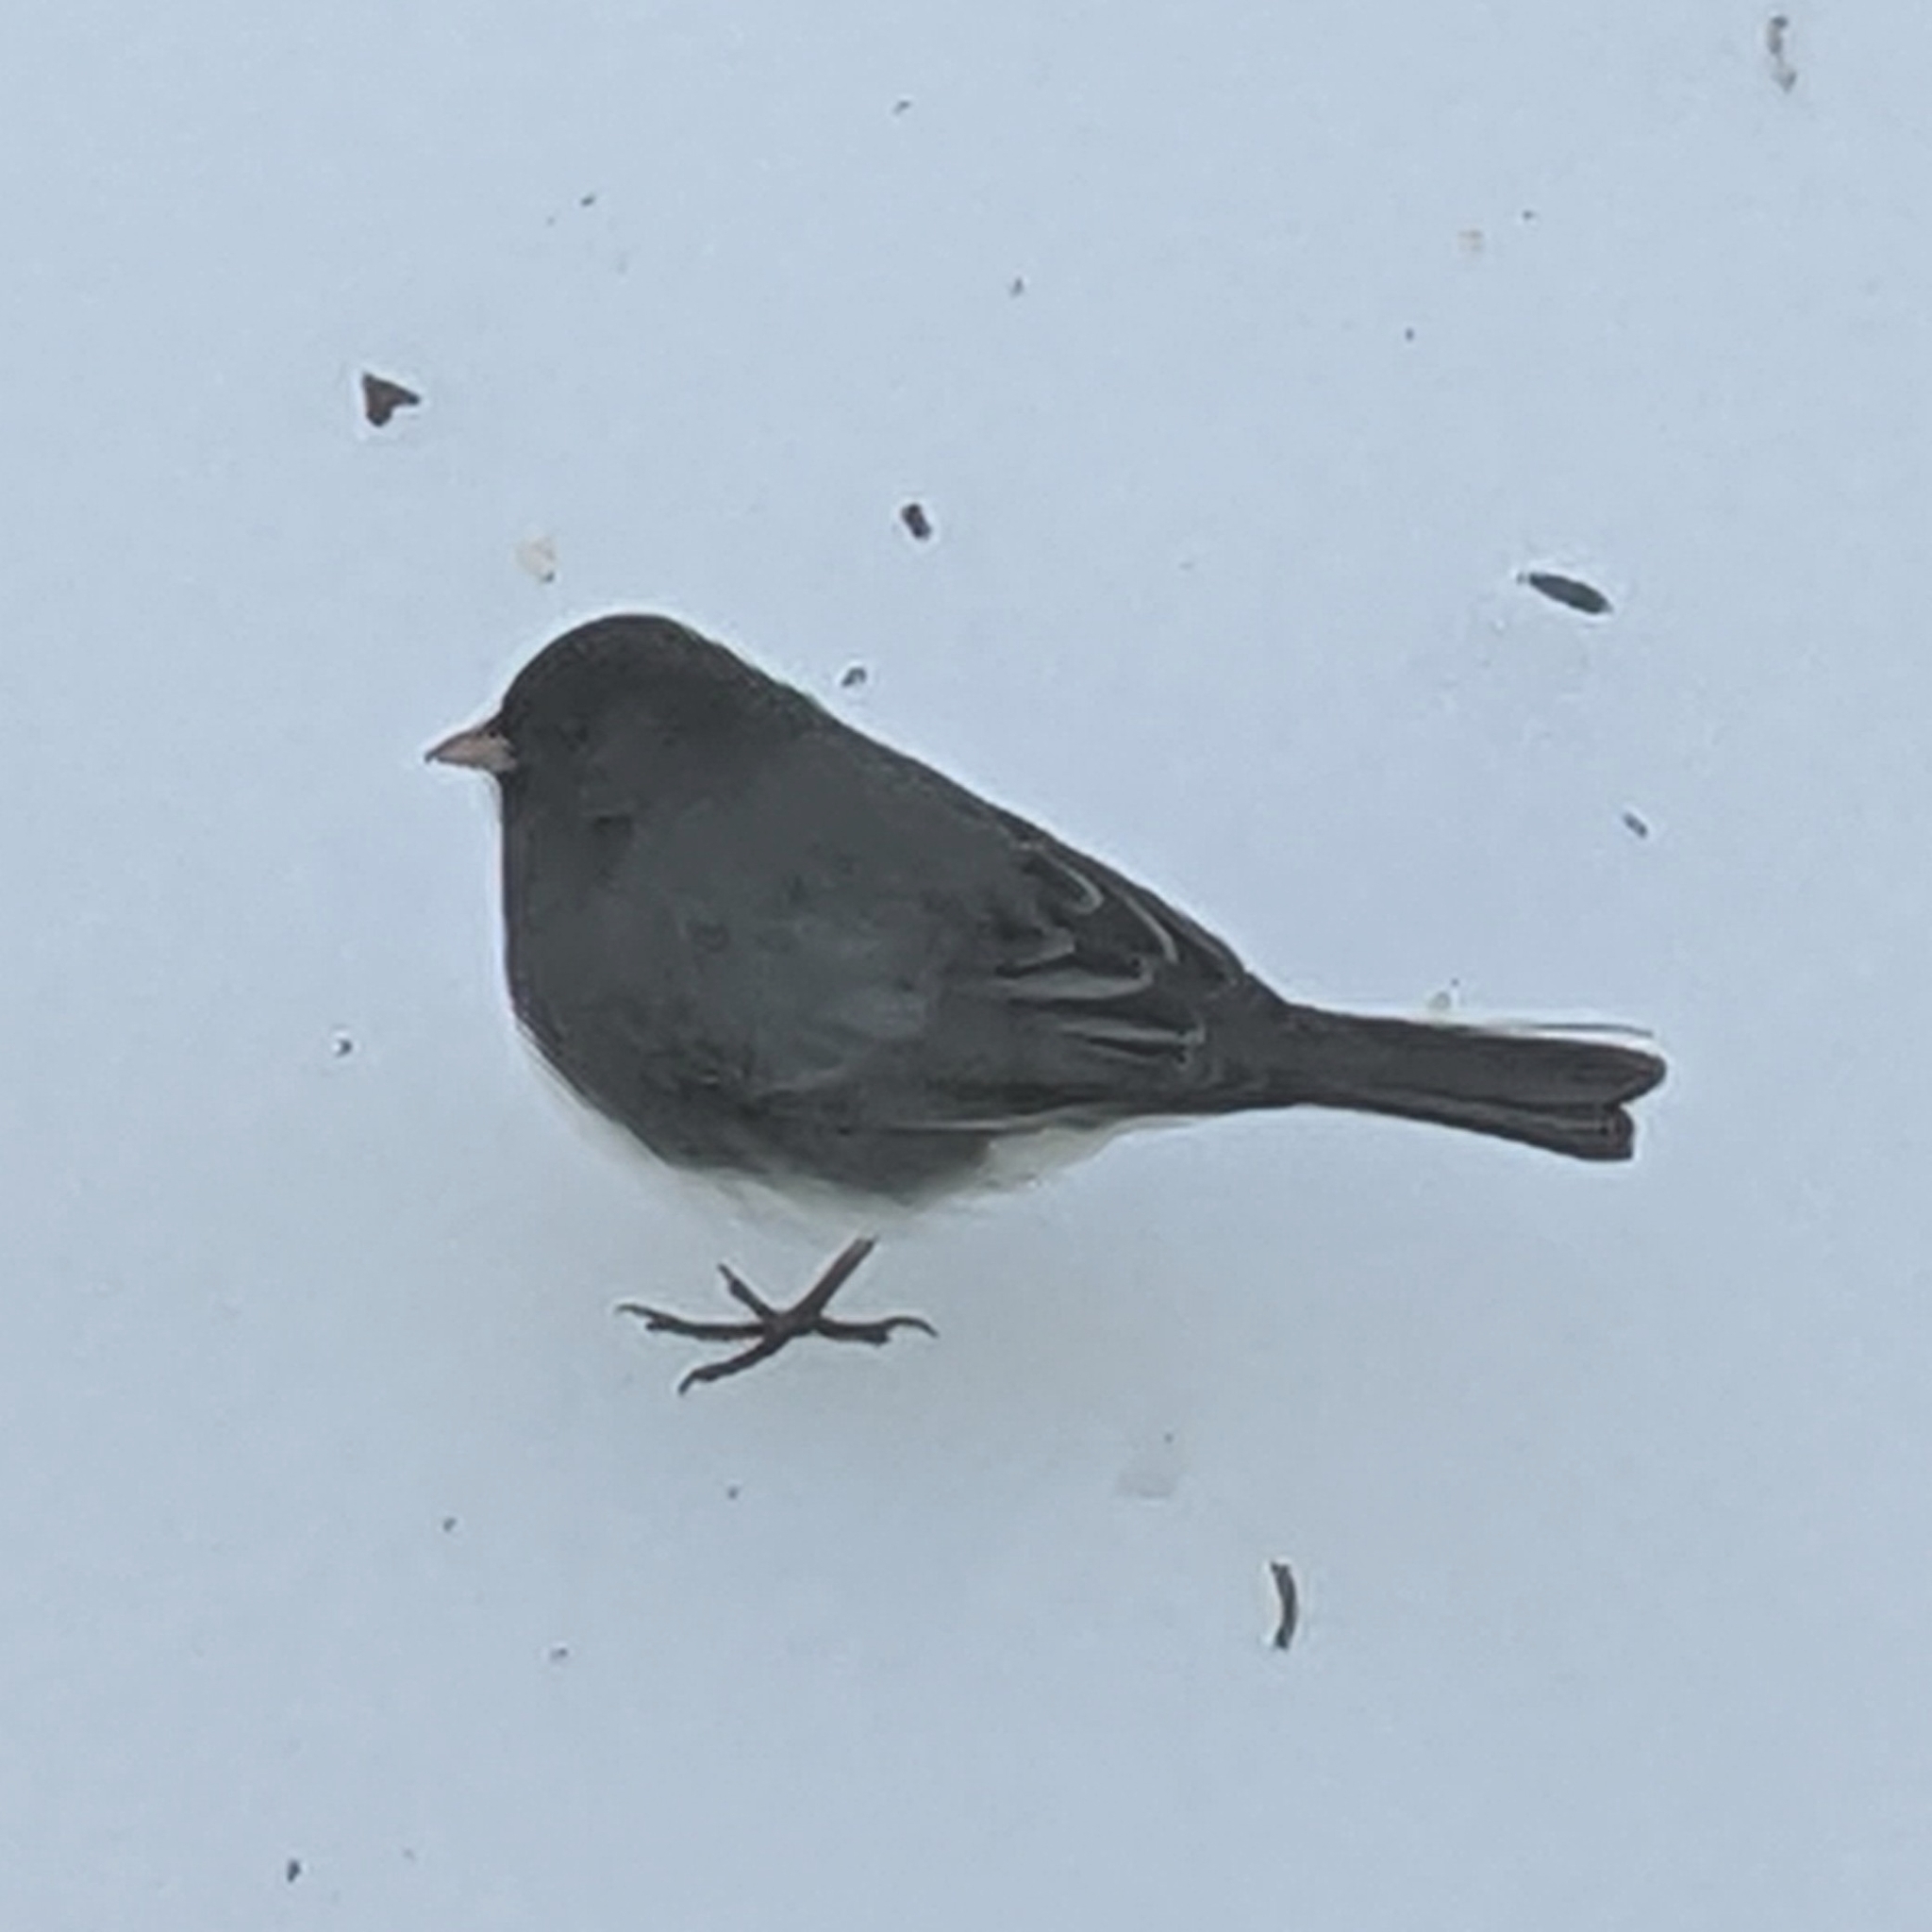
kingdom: Animalia
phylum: Chordata
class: Aves
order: Passeriformes
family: Passerellidae
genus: Junco
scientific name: Junco hyemalis
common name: Dark-eyed junco
